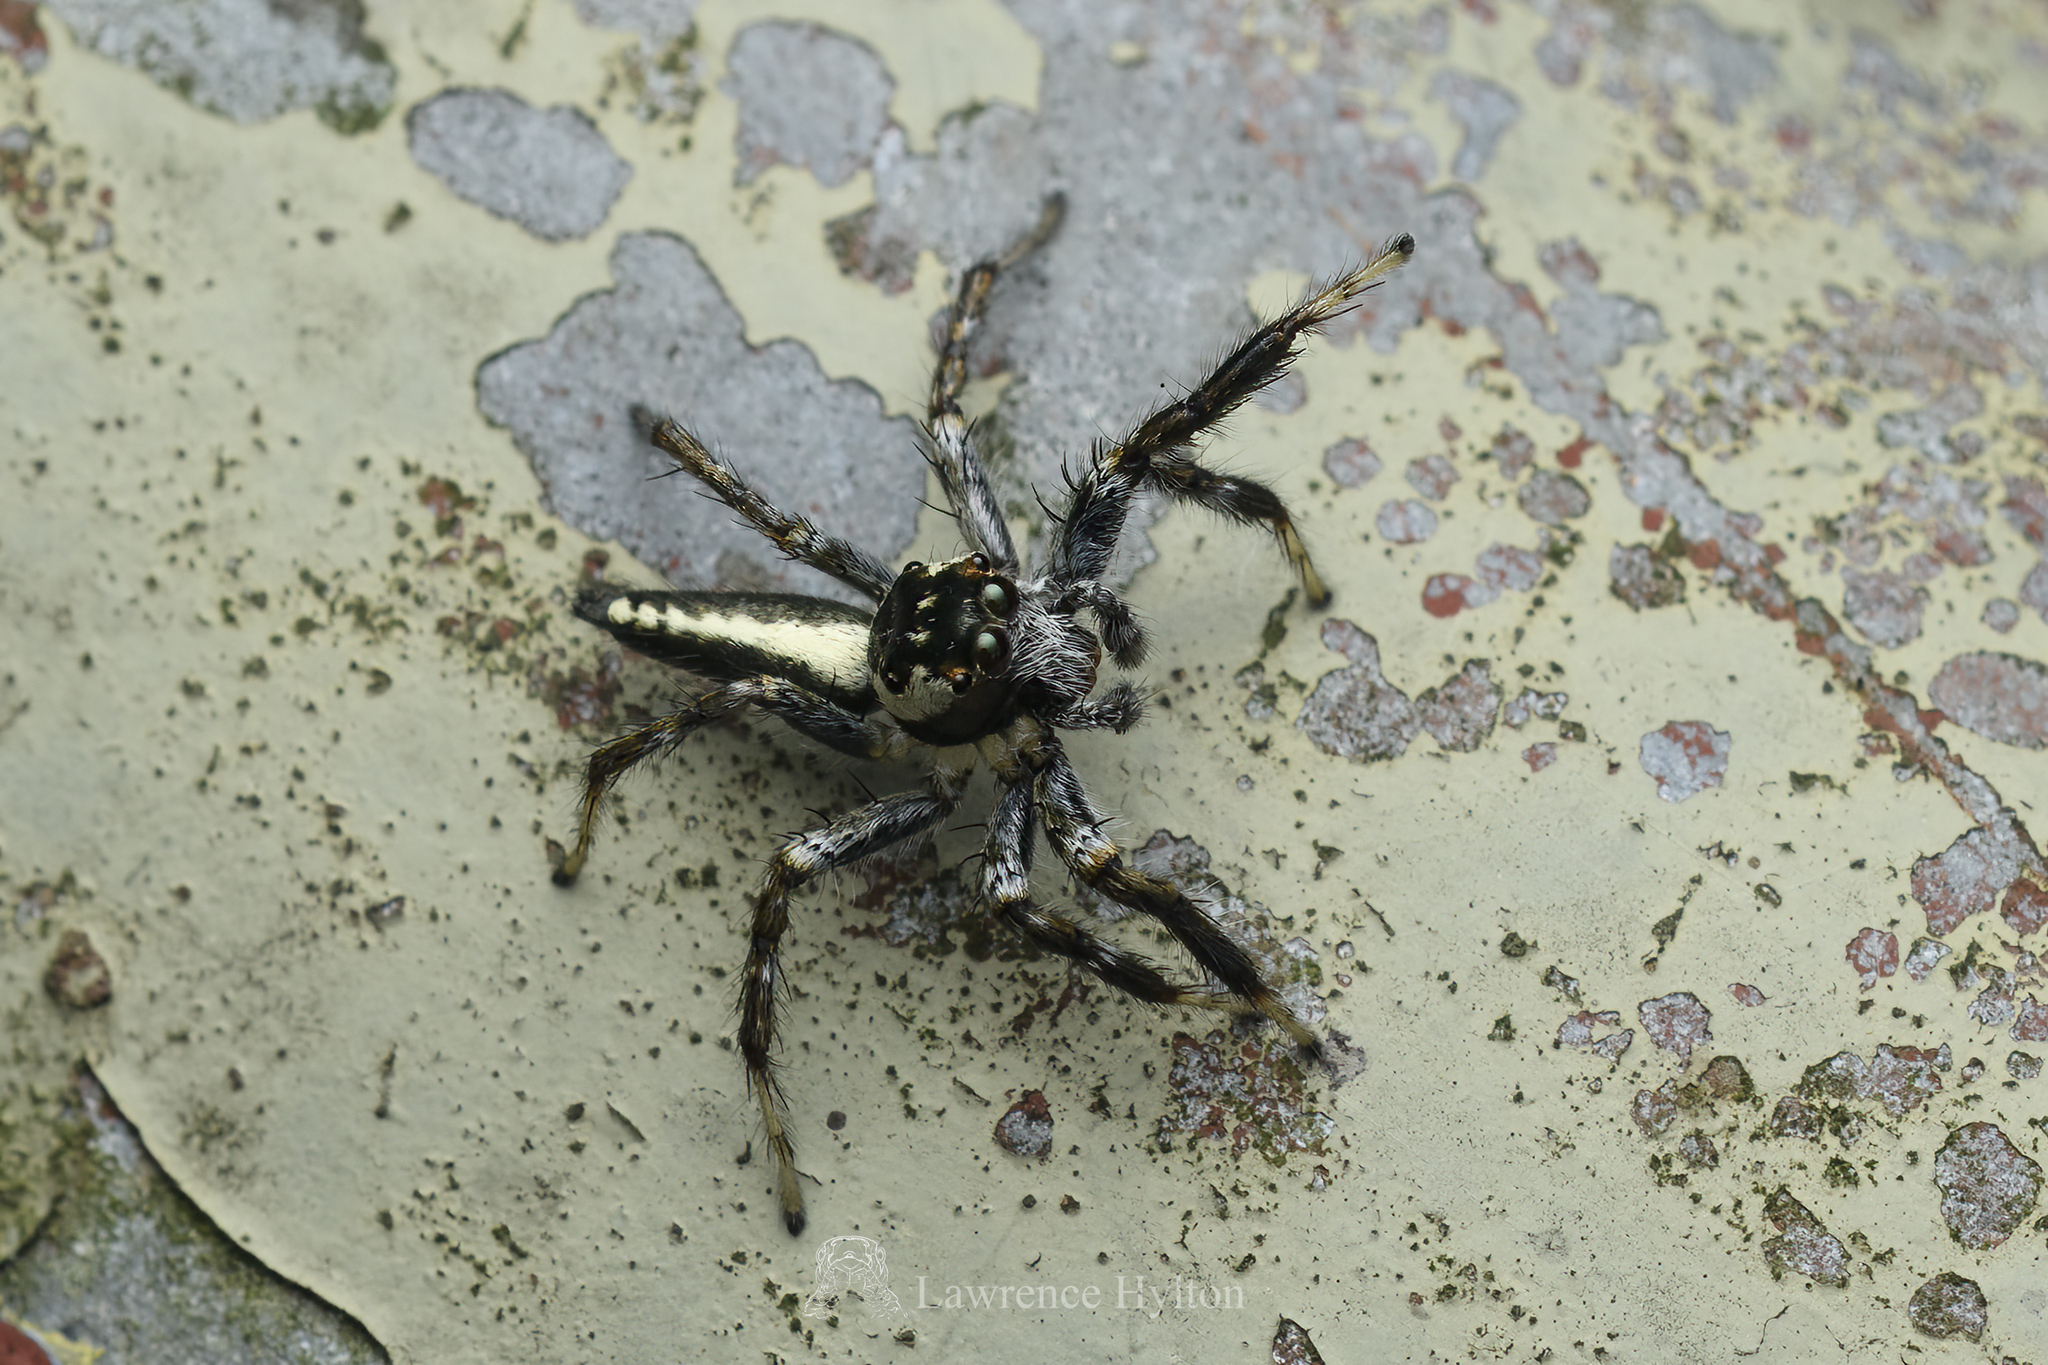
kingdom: Animalia
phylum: Arthropoda
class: Arachnida
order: Araneae
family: Salticidae
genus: Telamonia
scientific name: Telamonia caprina
